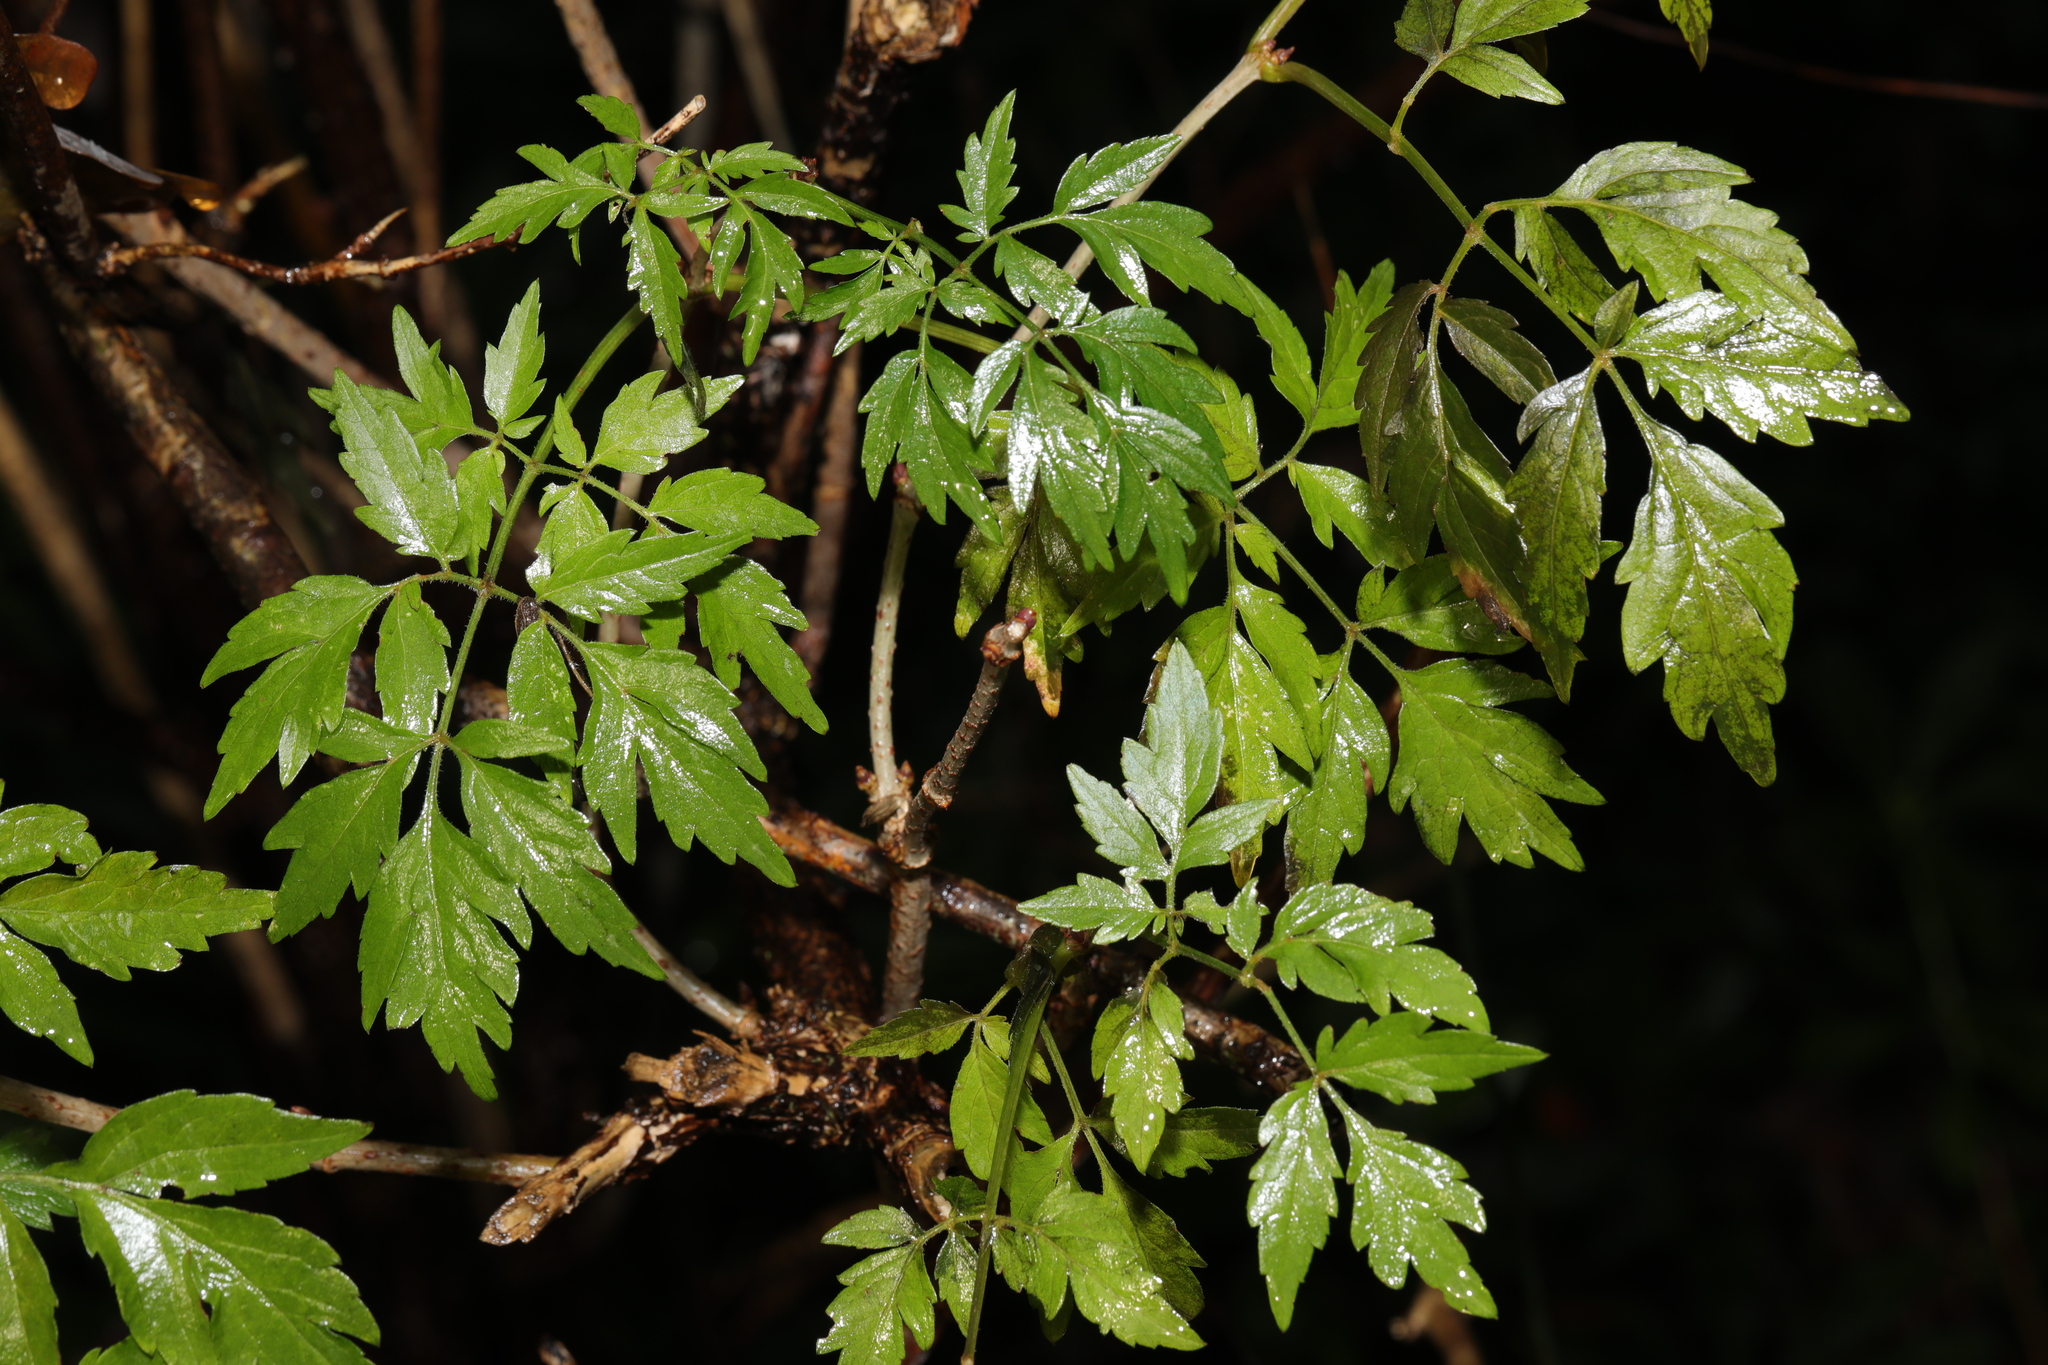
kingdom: Plantae
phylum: Tracheophyta
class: Magnoliopsida
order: Dipsacales
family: Viburnaceae
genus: Sambucus
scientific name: Sambucus nigra
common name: Elder
